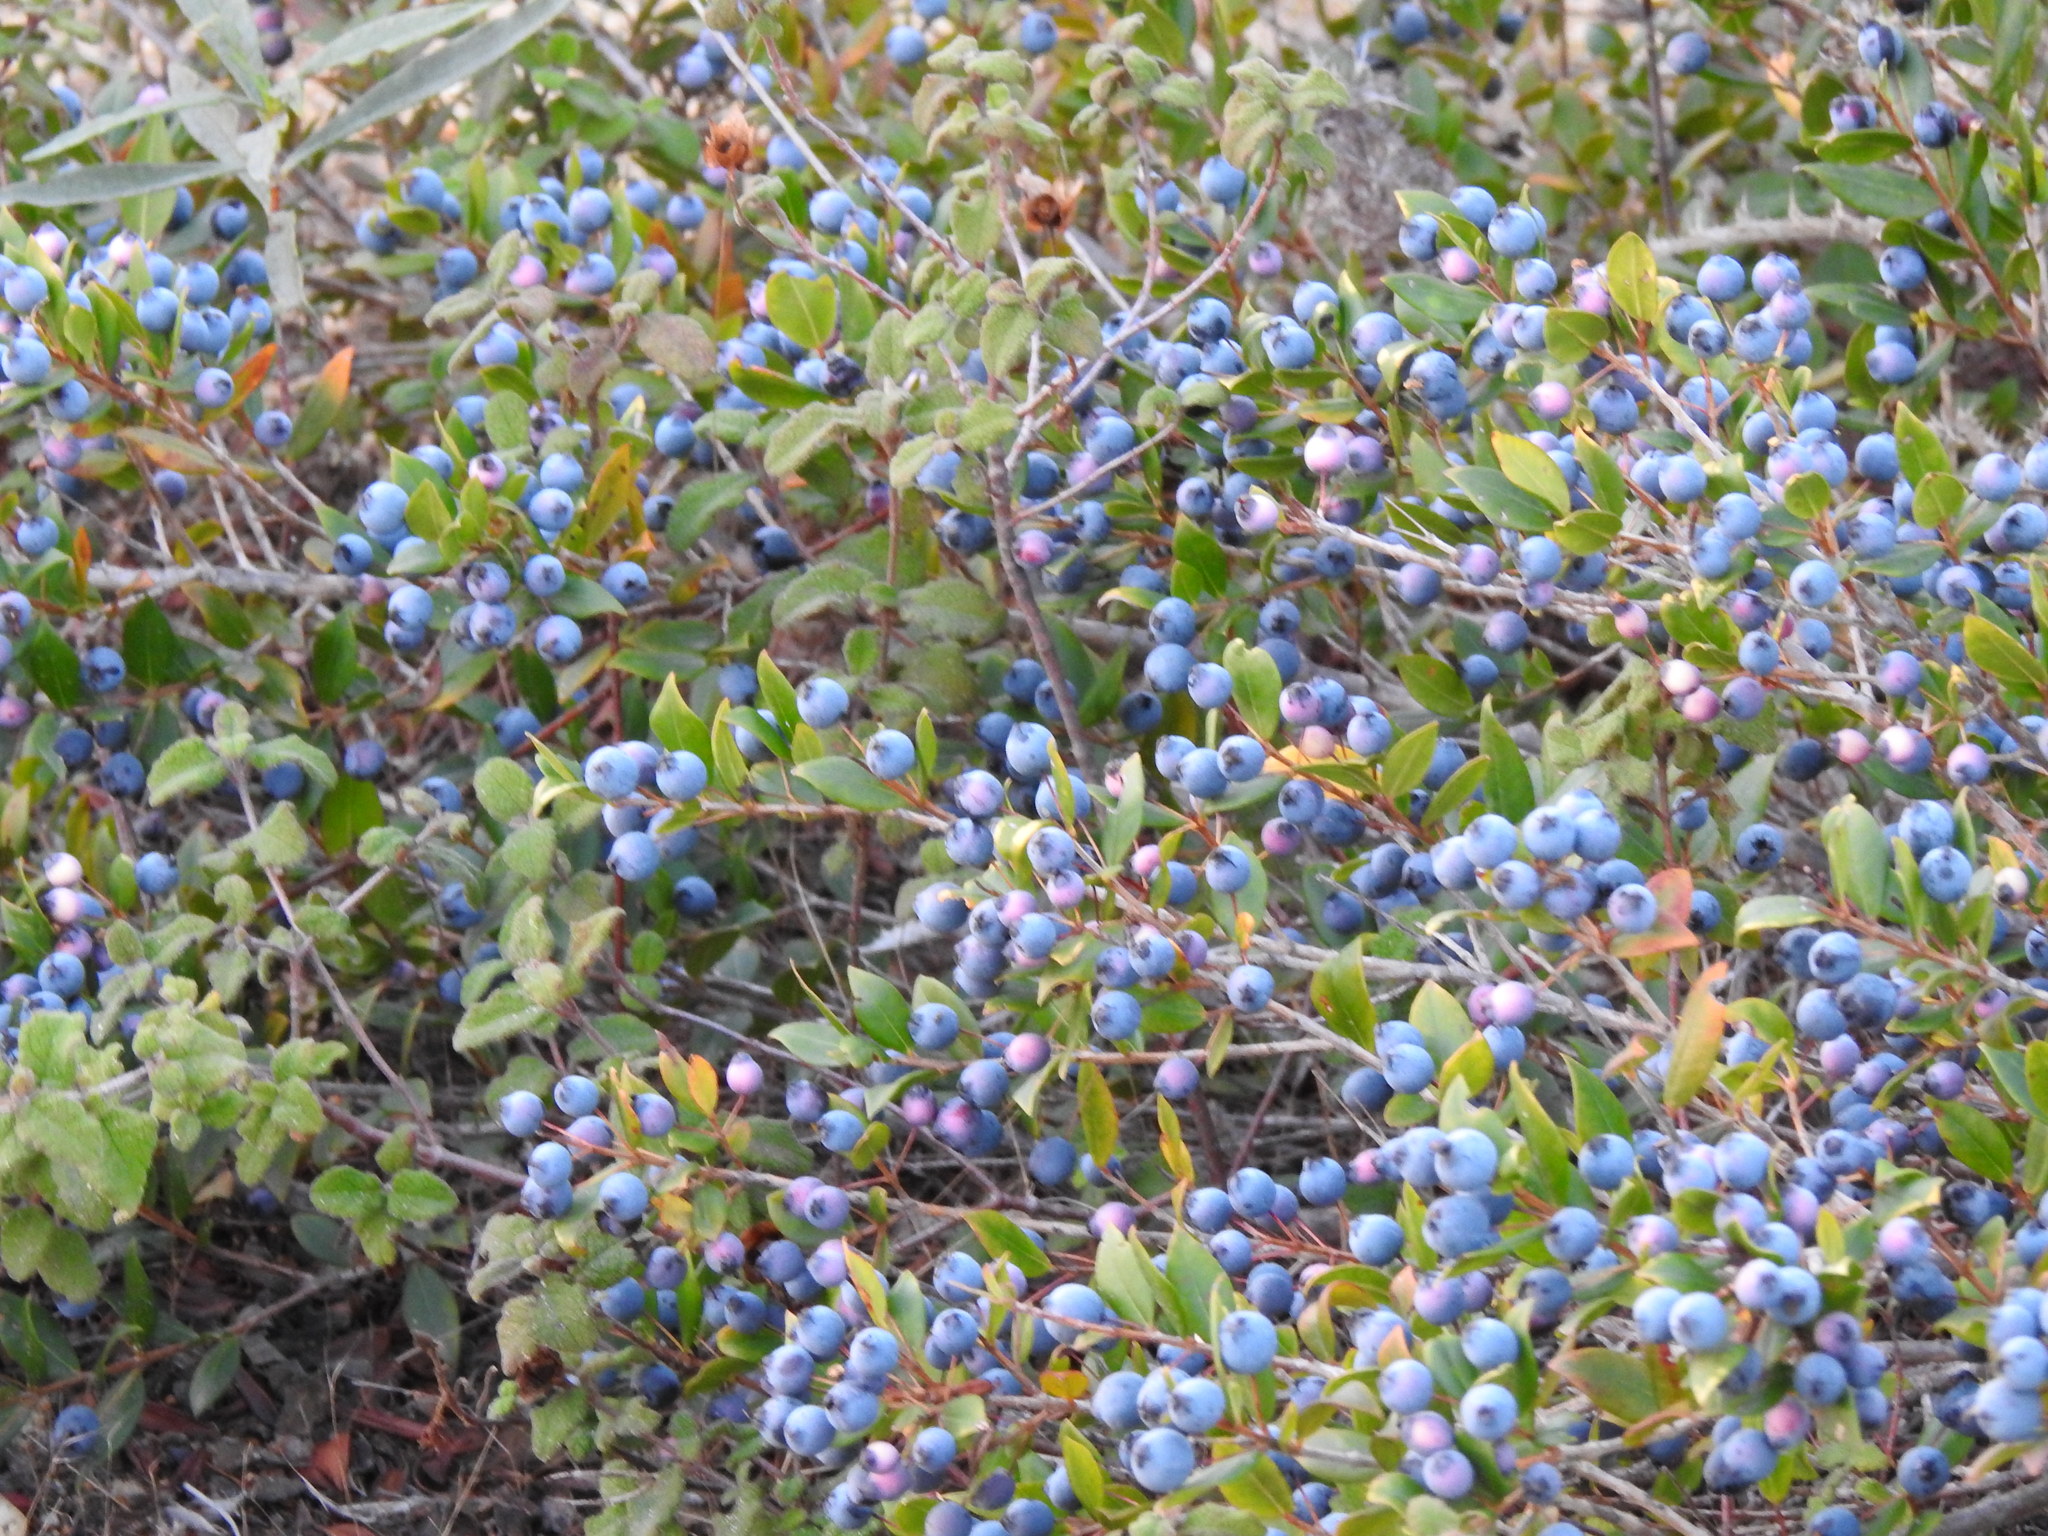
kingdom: Plantae
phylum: Tracheophyta
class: Magnoliopsida
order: Myrtales
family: Myrtaceae
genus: Myrtus
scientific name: Myrtus communis
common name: Myrtle
